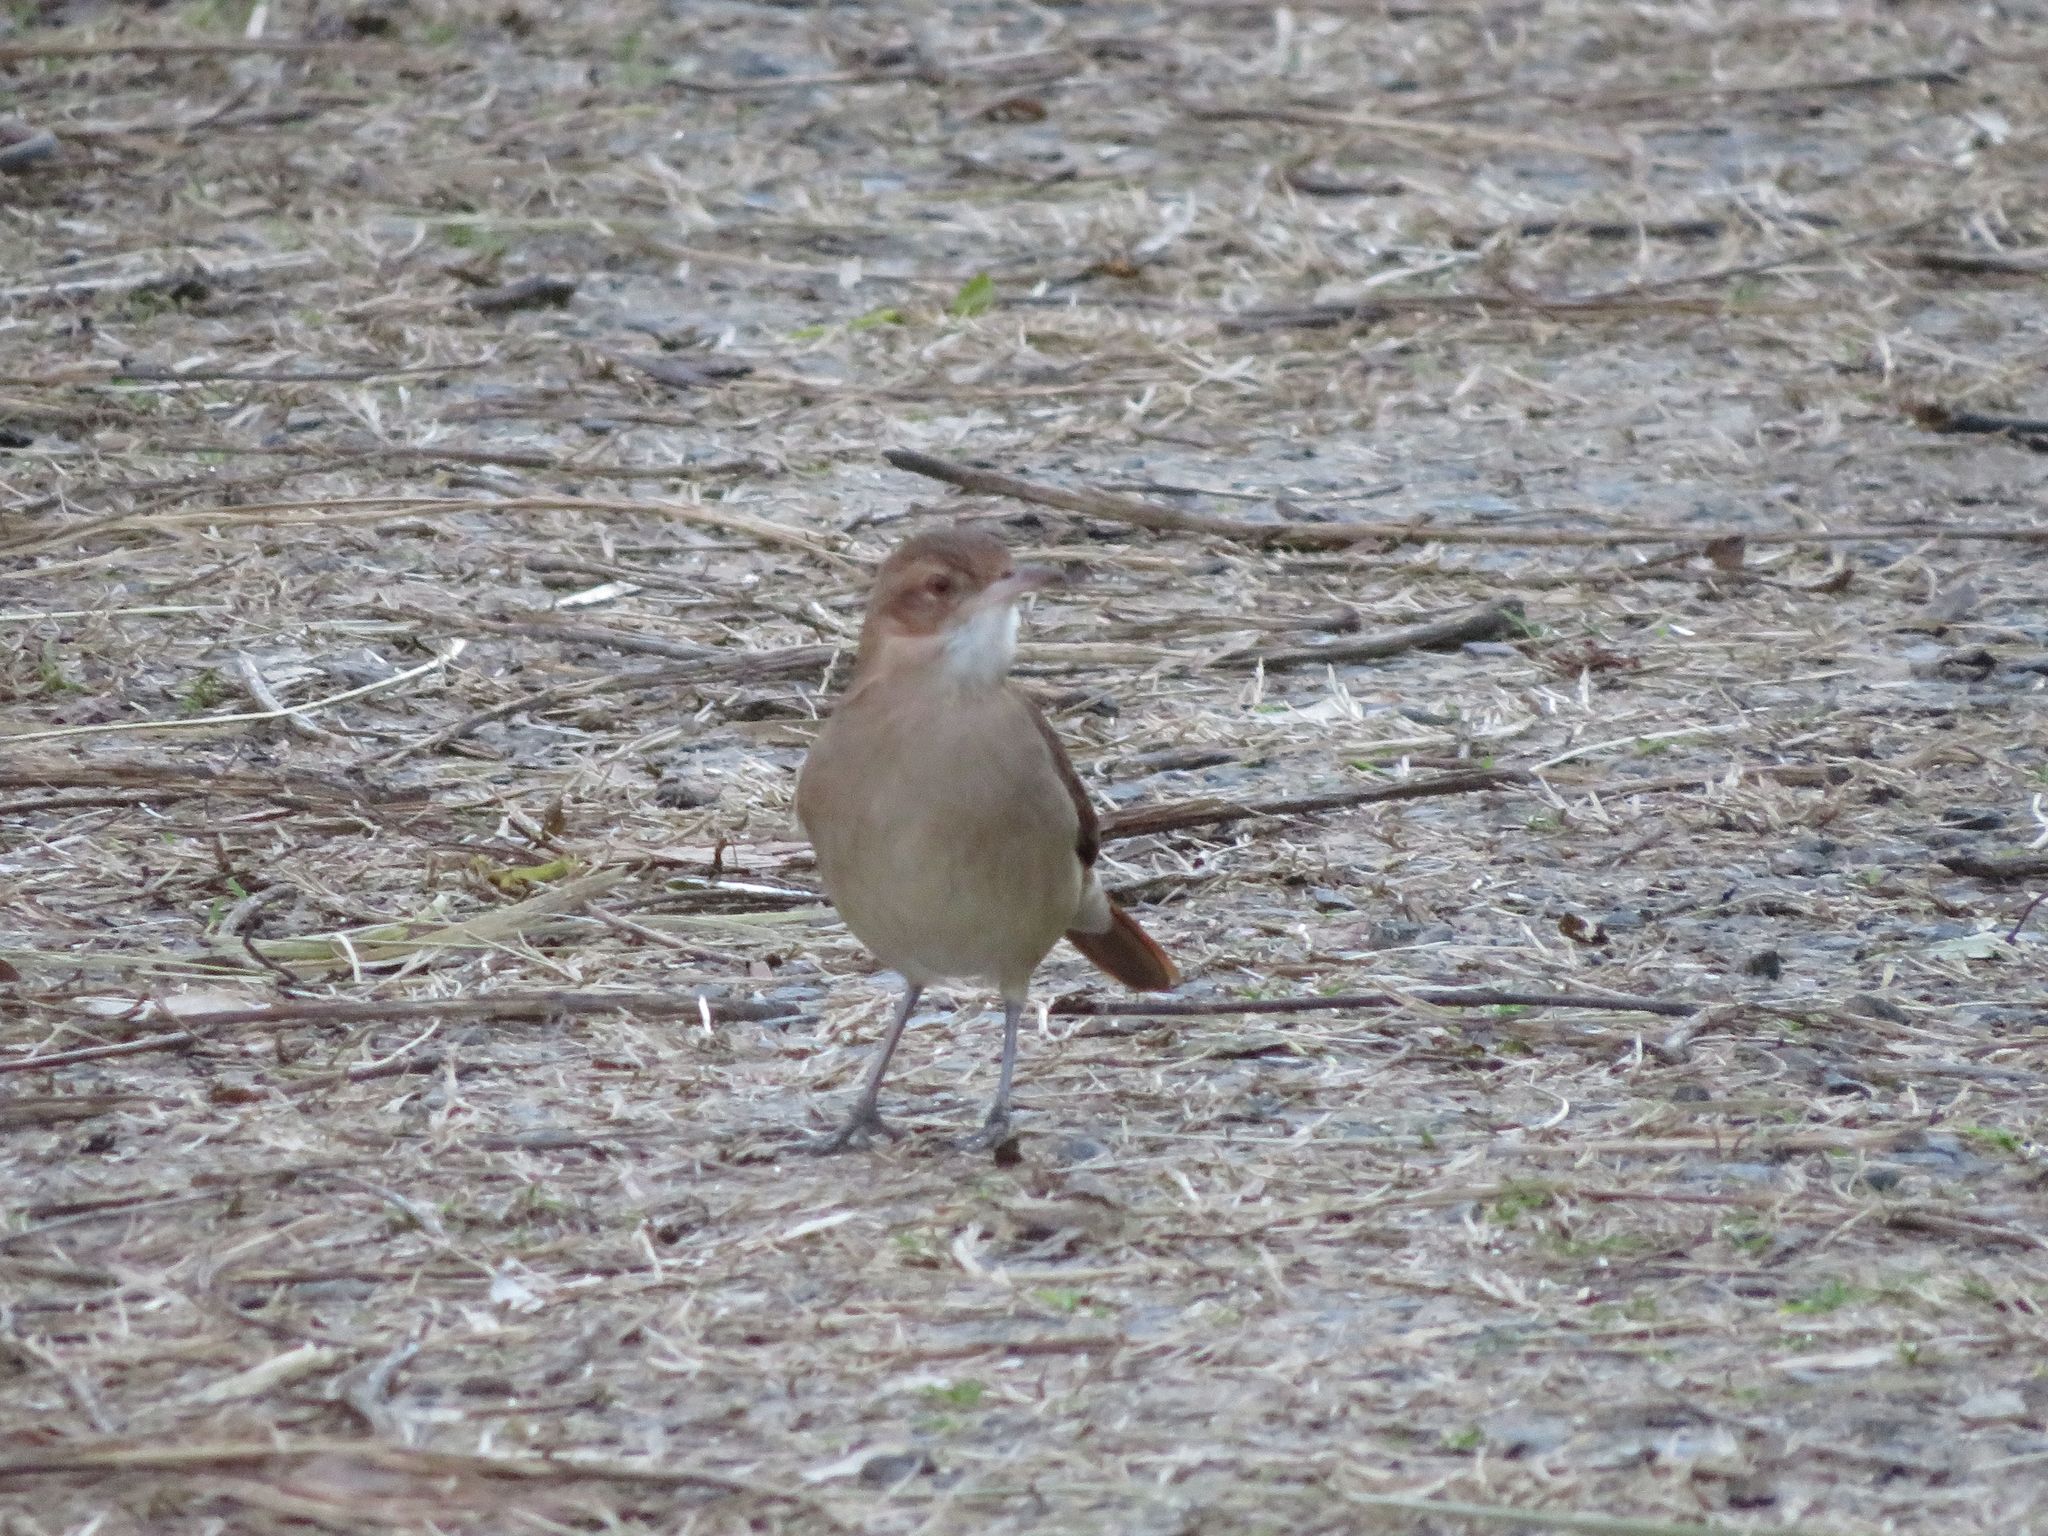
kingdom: Animalia
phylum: Chordata
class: Aves
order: Passeriformes
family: Furnariidae
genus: Furnarius
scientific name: Furnarius rufus
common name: Rufous hornero
